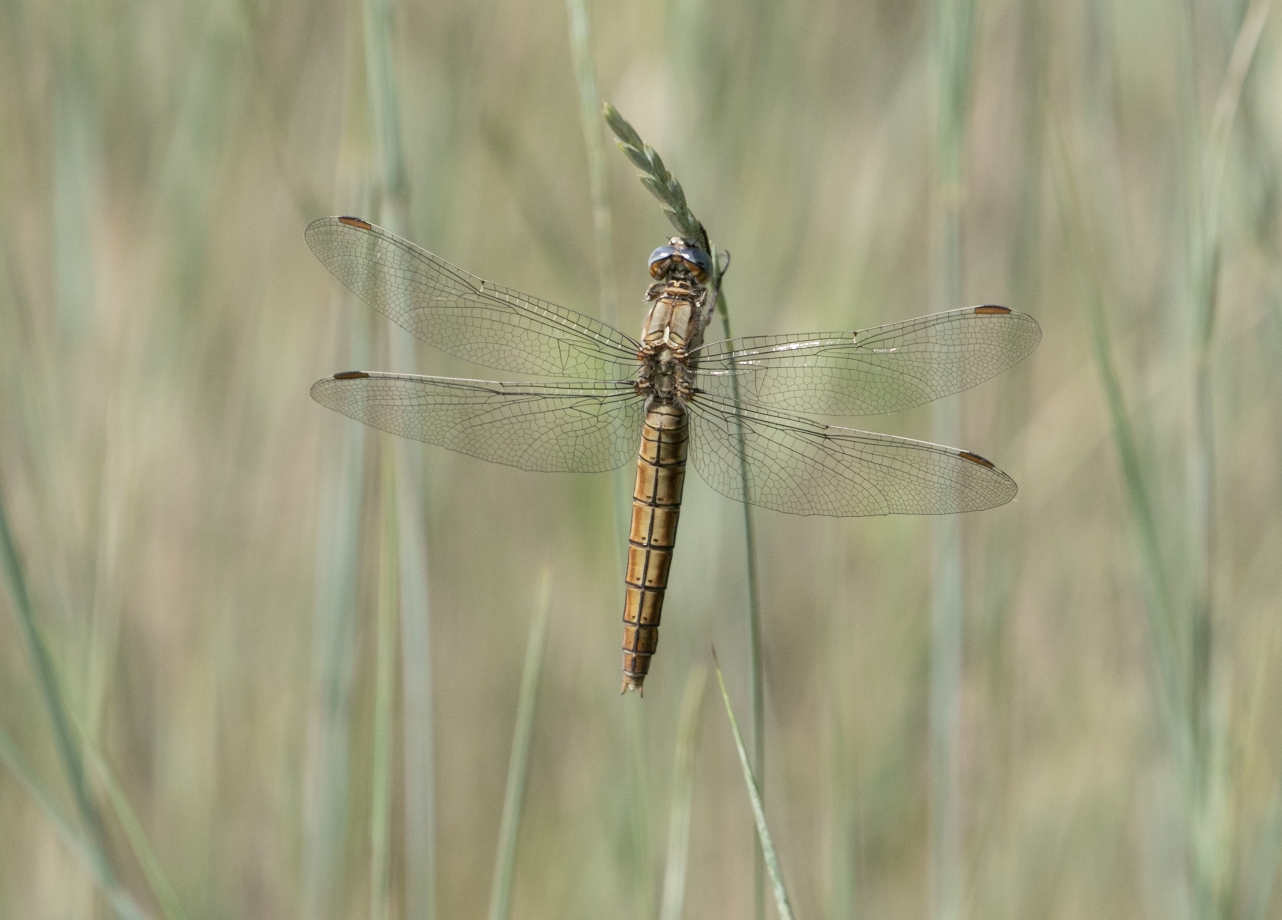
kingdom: Animalia
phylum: Arthropoda
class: Insecta
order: Odonata
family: Libellulidae
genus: Orthetrum
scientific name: Orthetrum brunneum
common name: Southern skimmer
